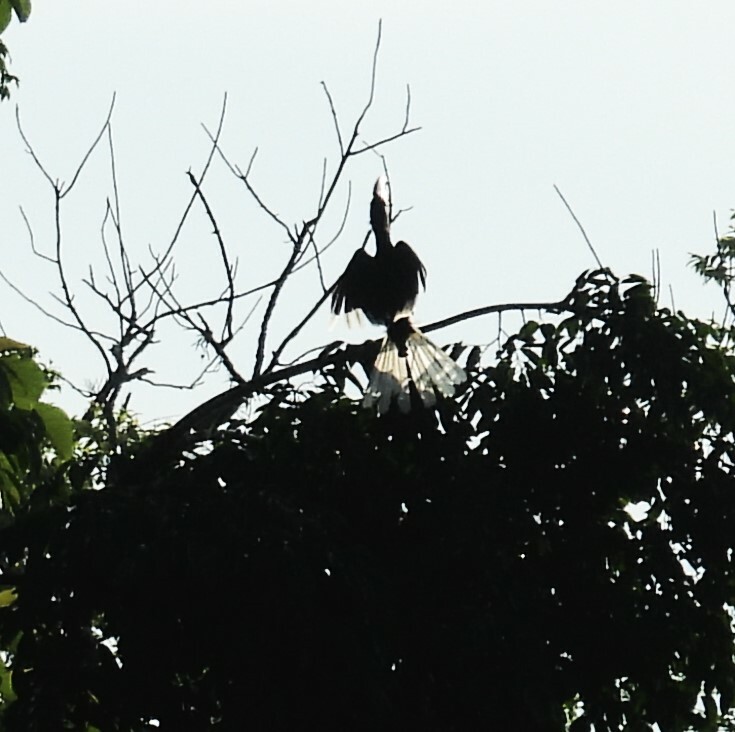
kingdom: Animalia
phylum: Chordata
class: Aves
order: Bucerotiformes
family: Bucerotidae
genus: Anthracoceros
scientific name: Anthracoceros coronatus
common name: Malabar pied hornbill
